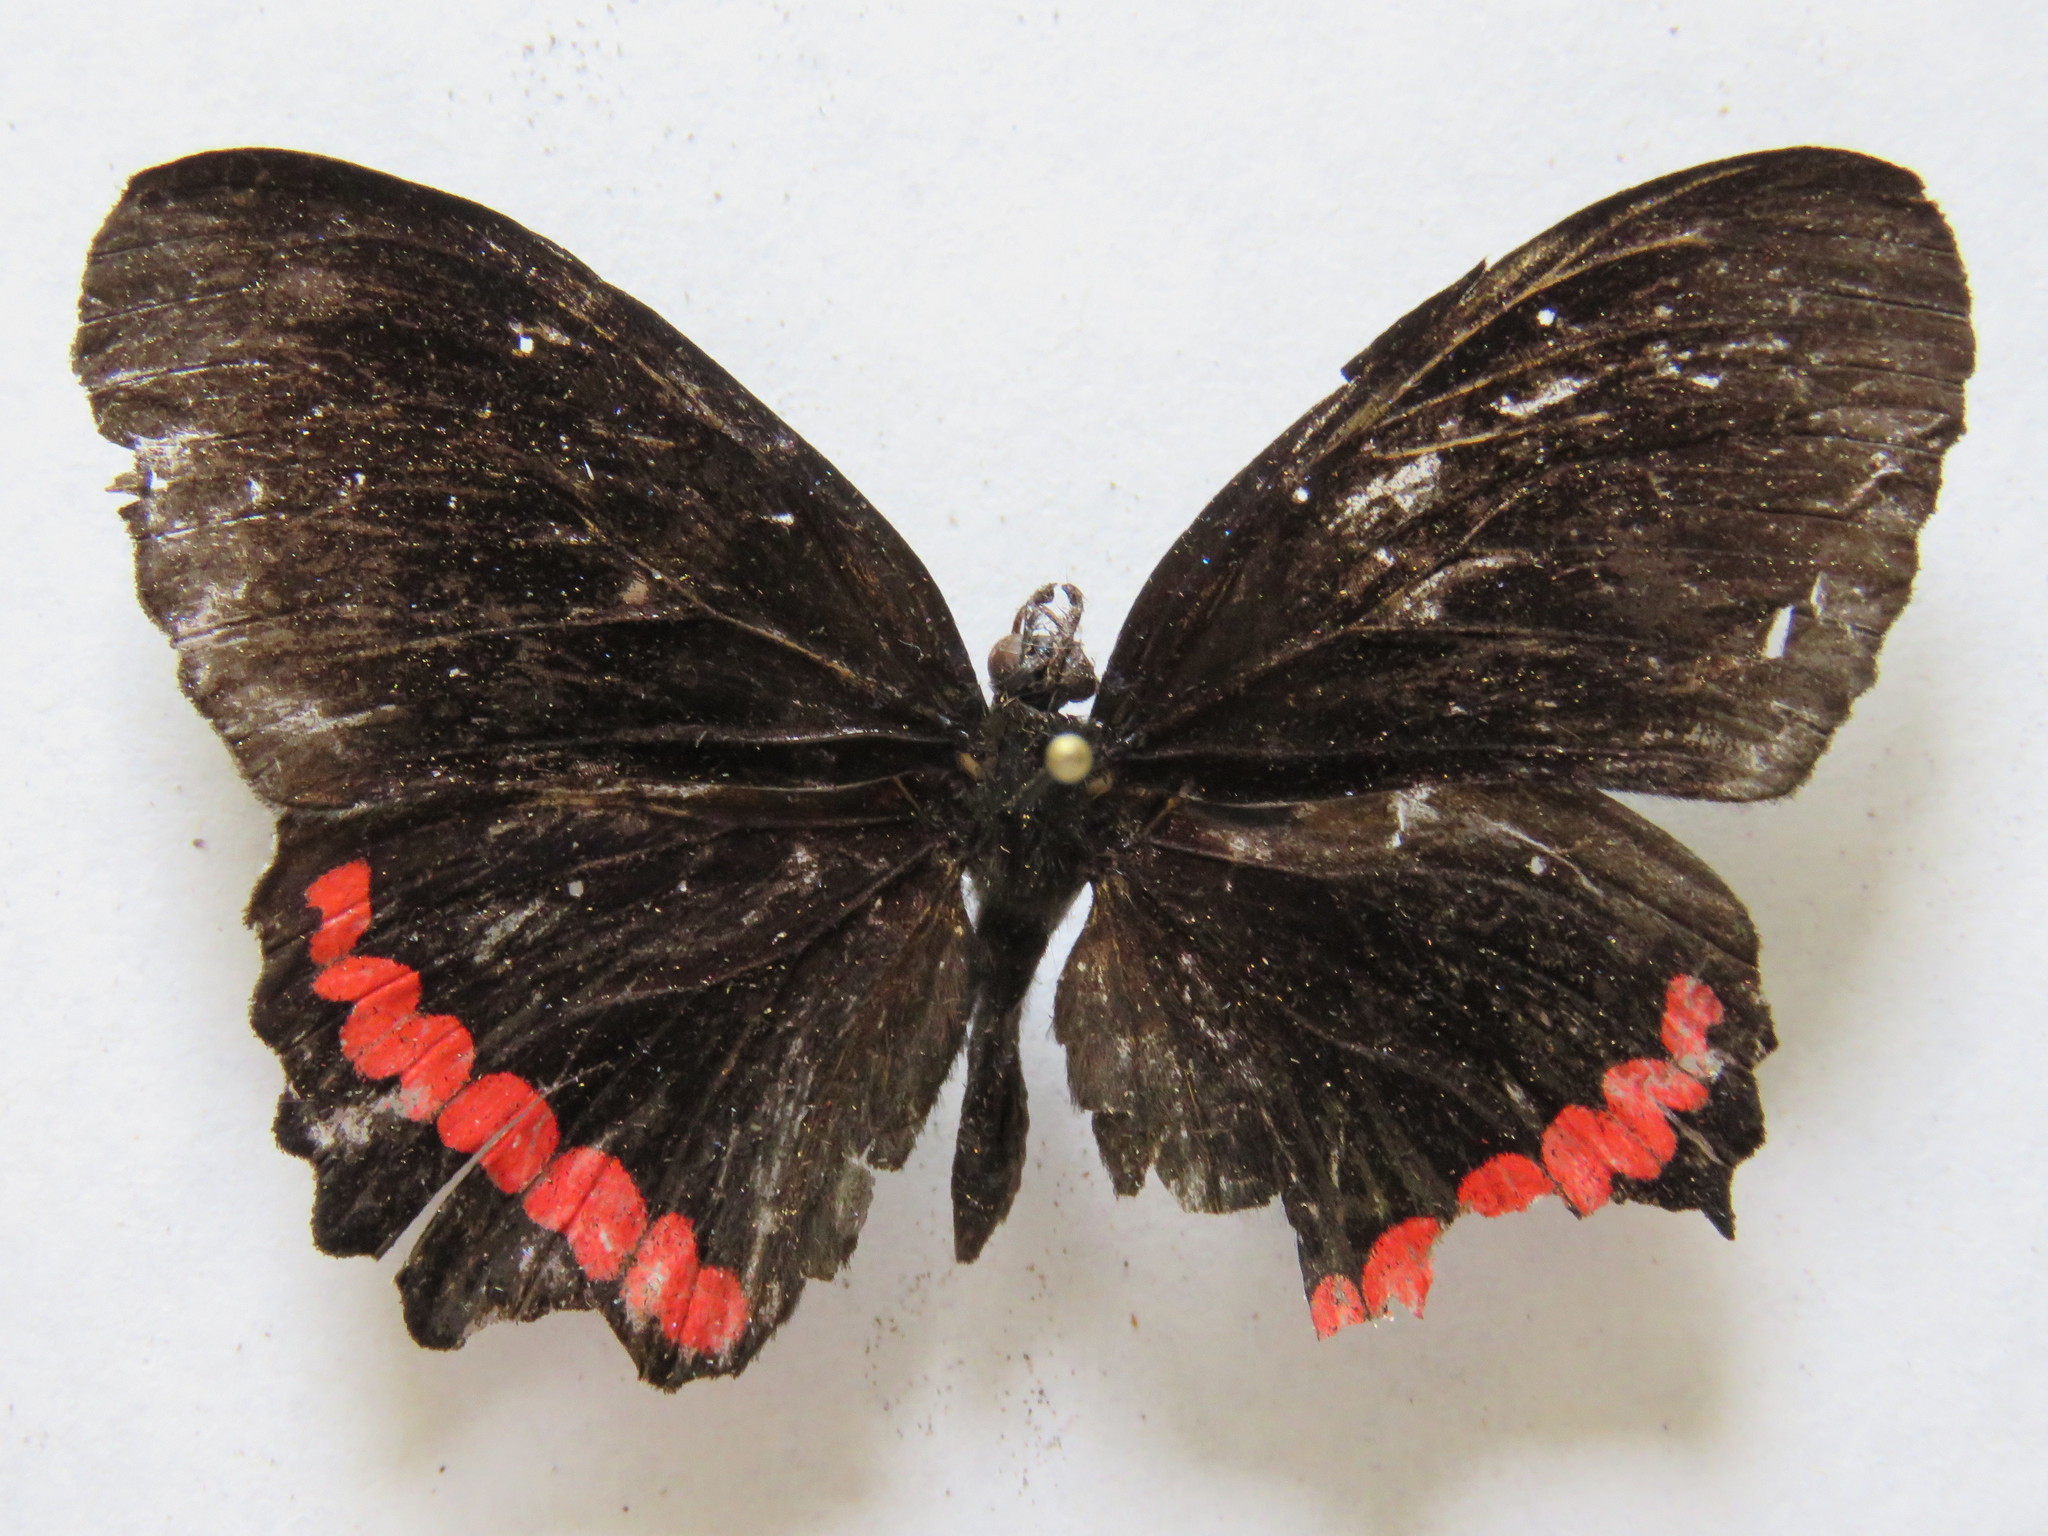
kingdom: Animalia
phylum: Arthropoda
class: Insecta
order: Lepidoptera
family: Nymphalidae
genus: Biblis
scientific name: Biblis aganisa
